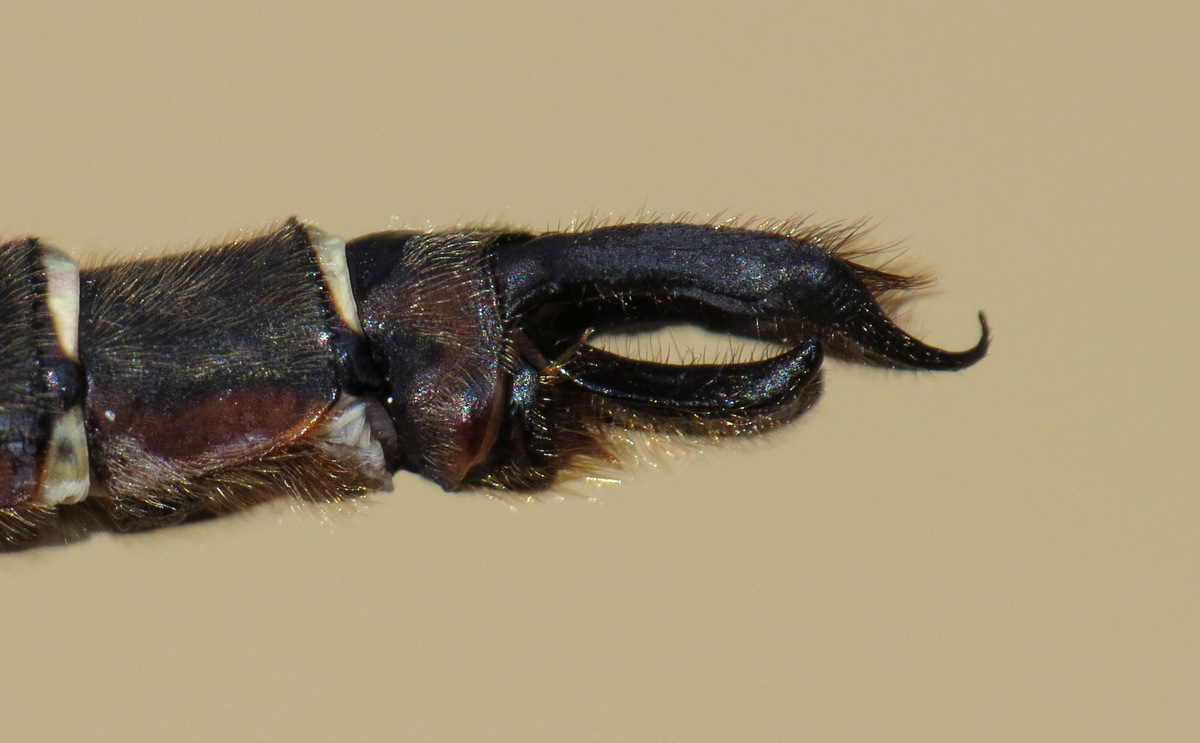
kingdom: Animalia
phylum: Arthropoda
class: Insecta
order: Odonata
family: Corduliidae
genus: Somatochlora
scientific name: Somatochlora cingulata
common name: Lake emerald
